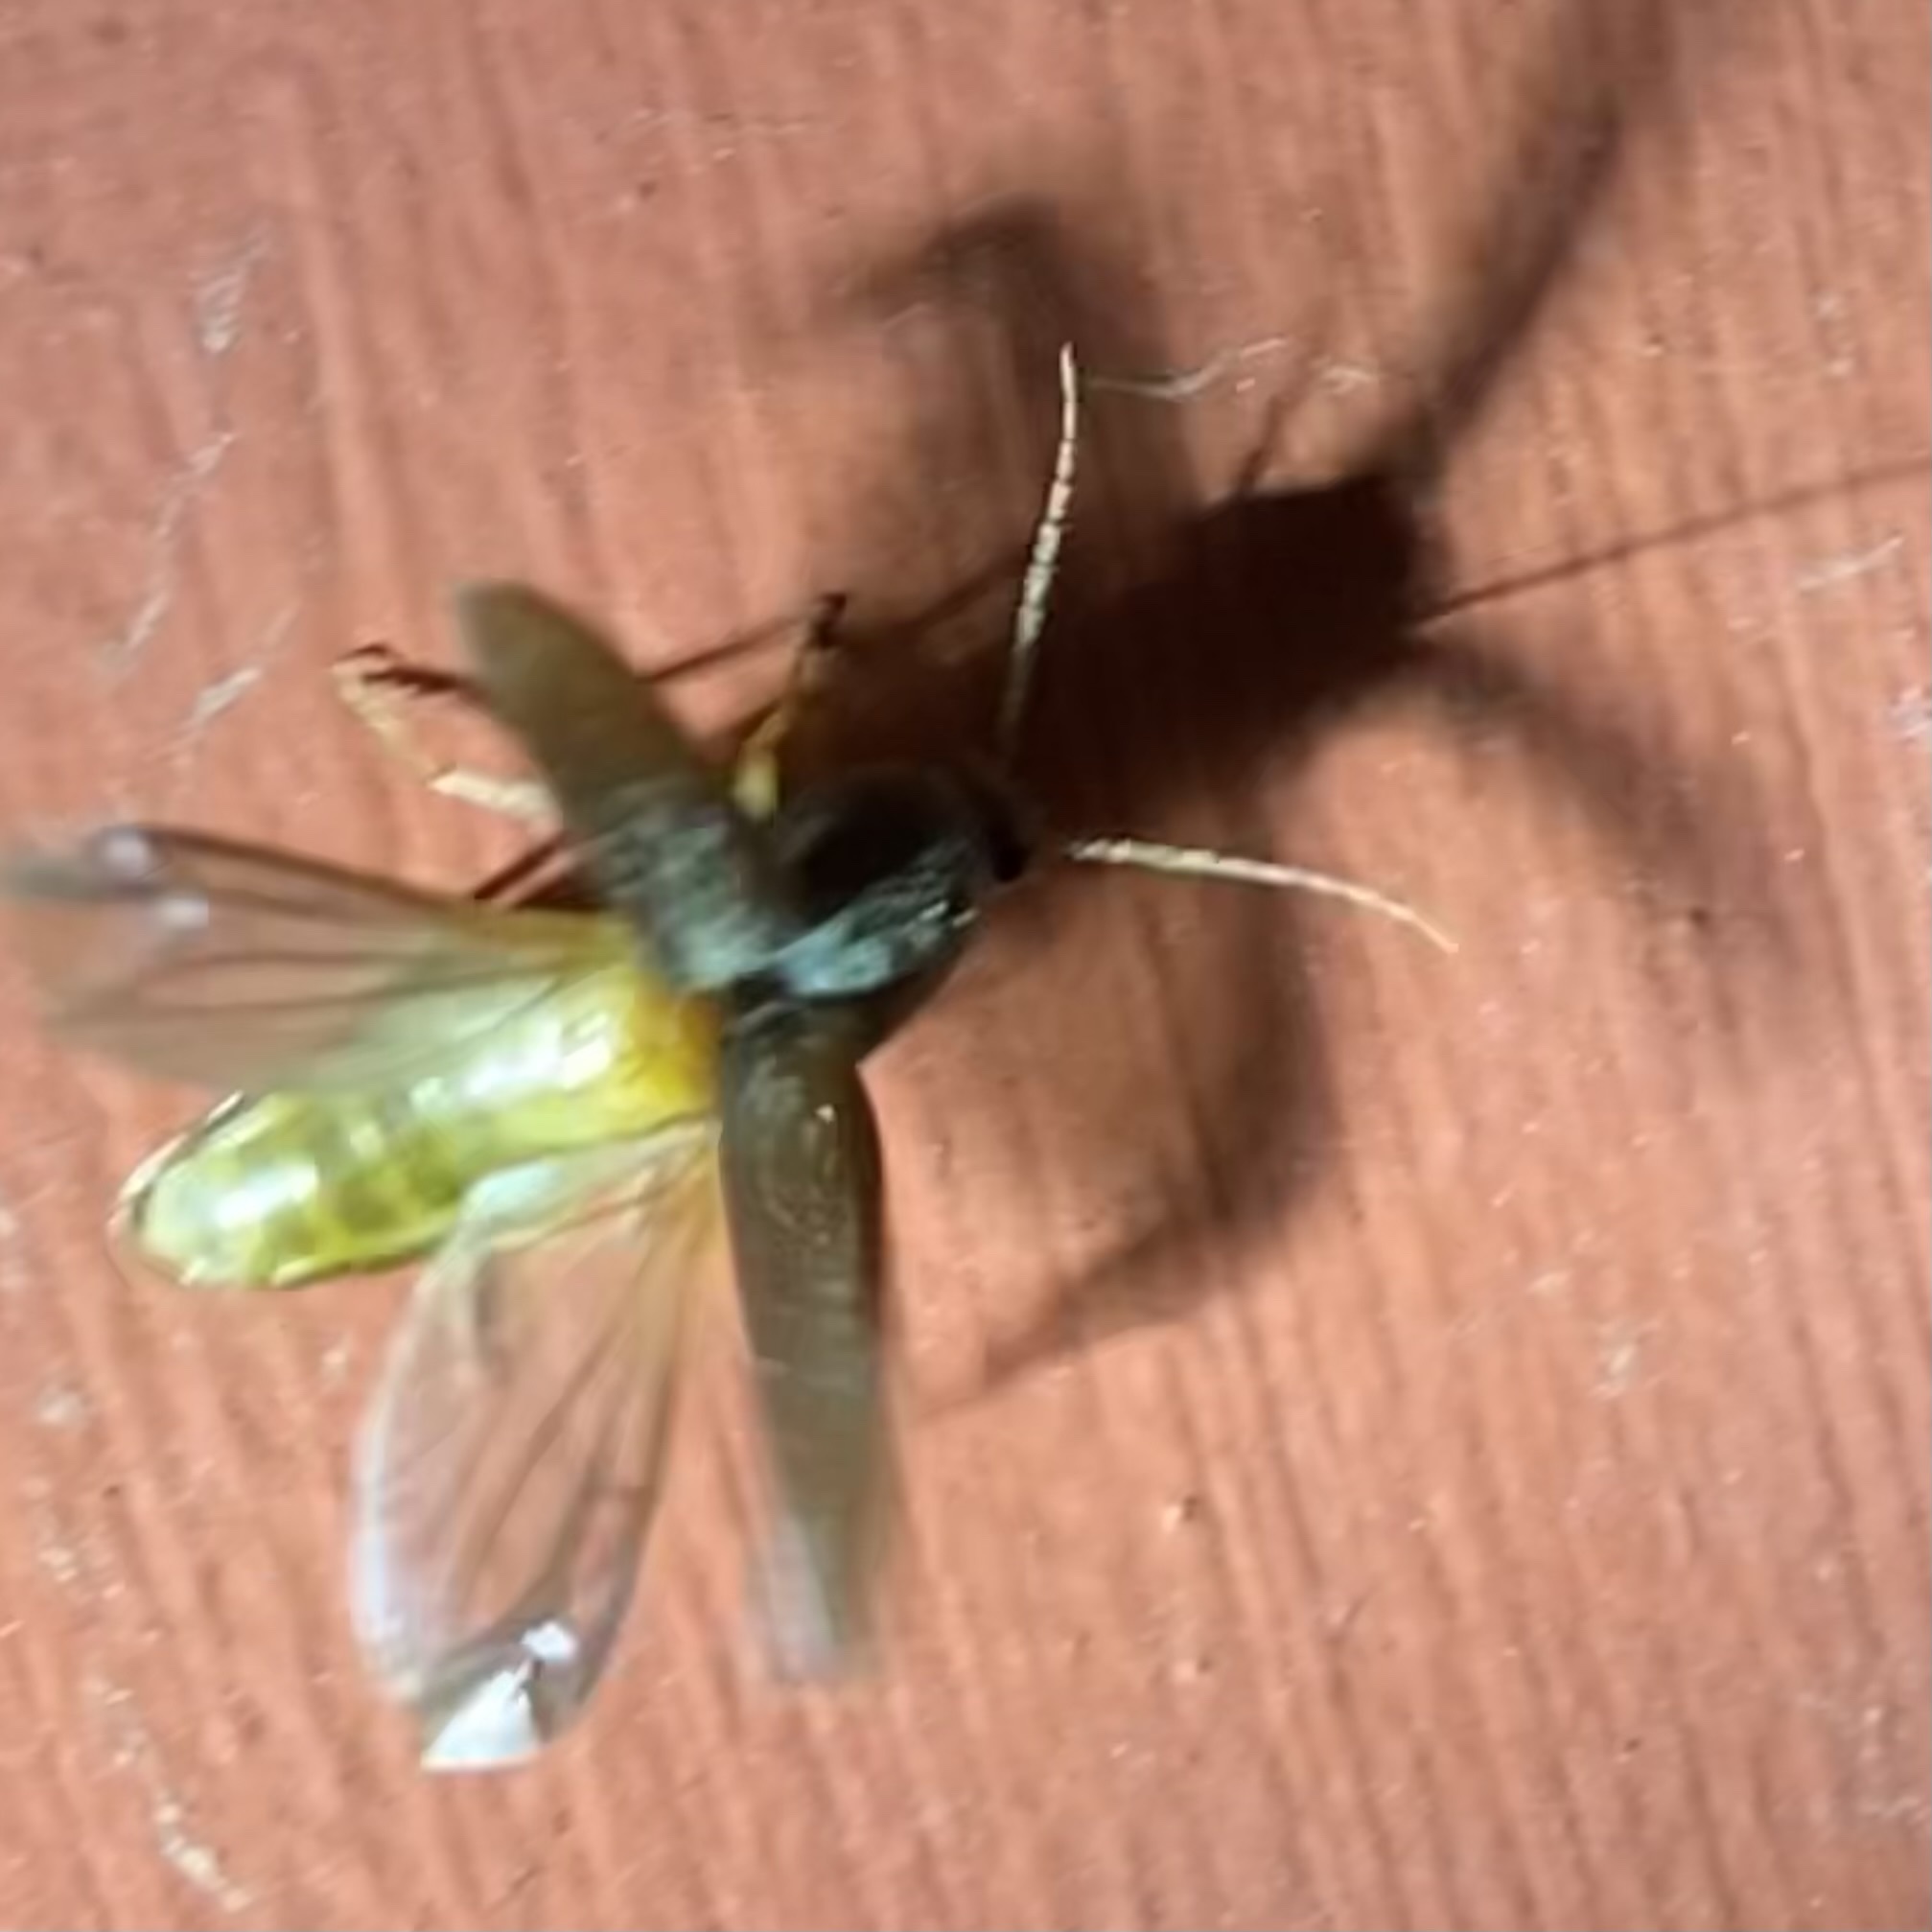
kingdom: Animalia
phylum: Arthropoda
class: Insecta
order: Coleoptera
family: Elateridae
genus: Conoderus
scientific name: Conoderus exsul
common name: Click beetle
